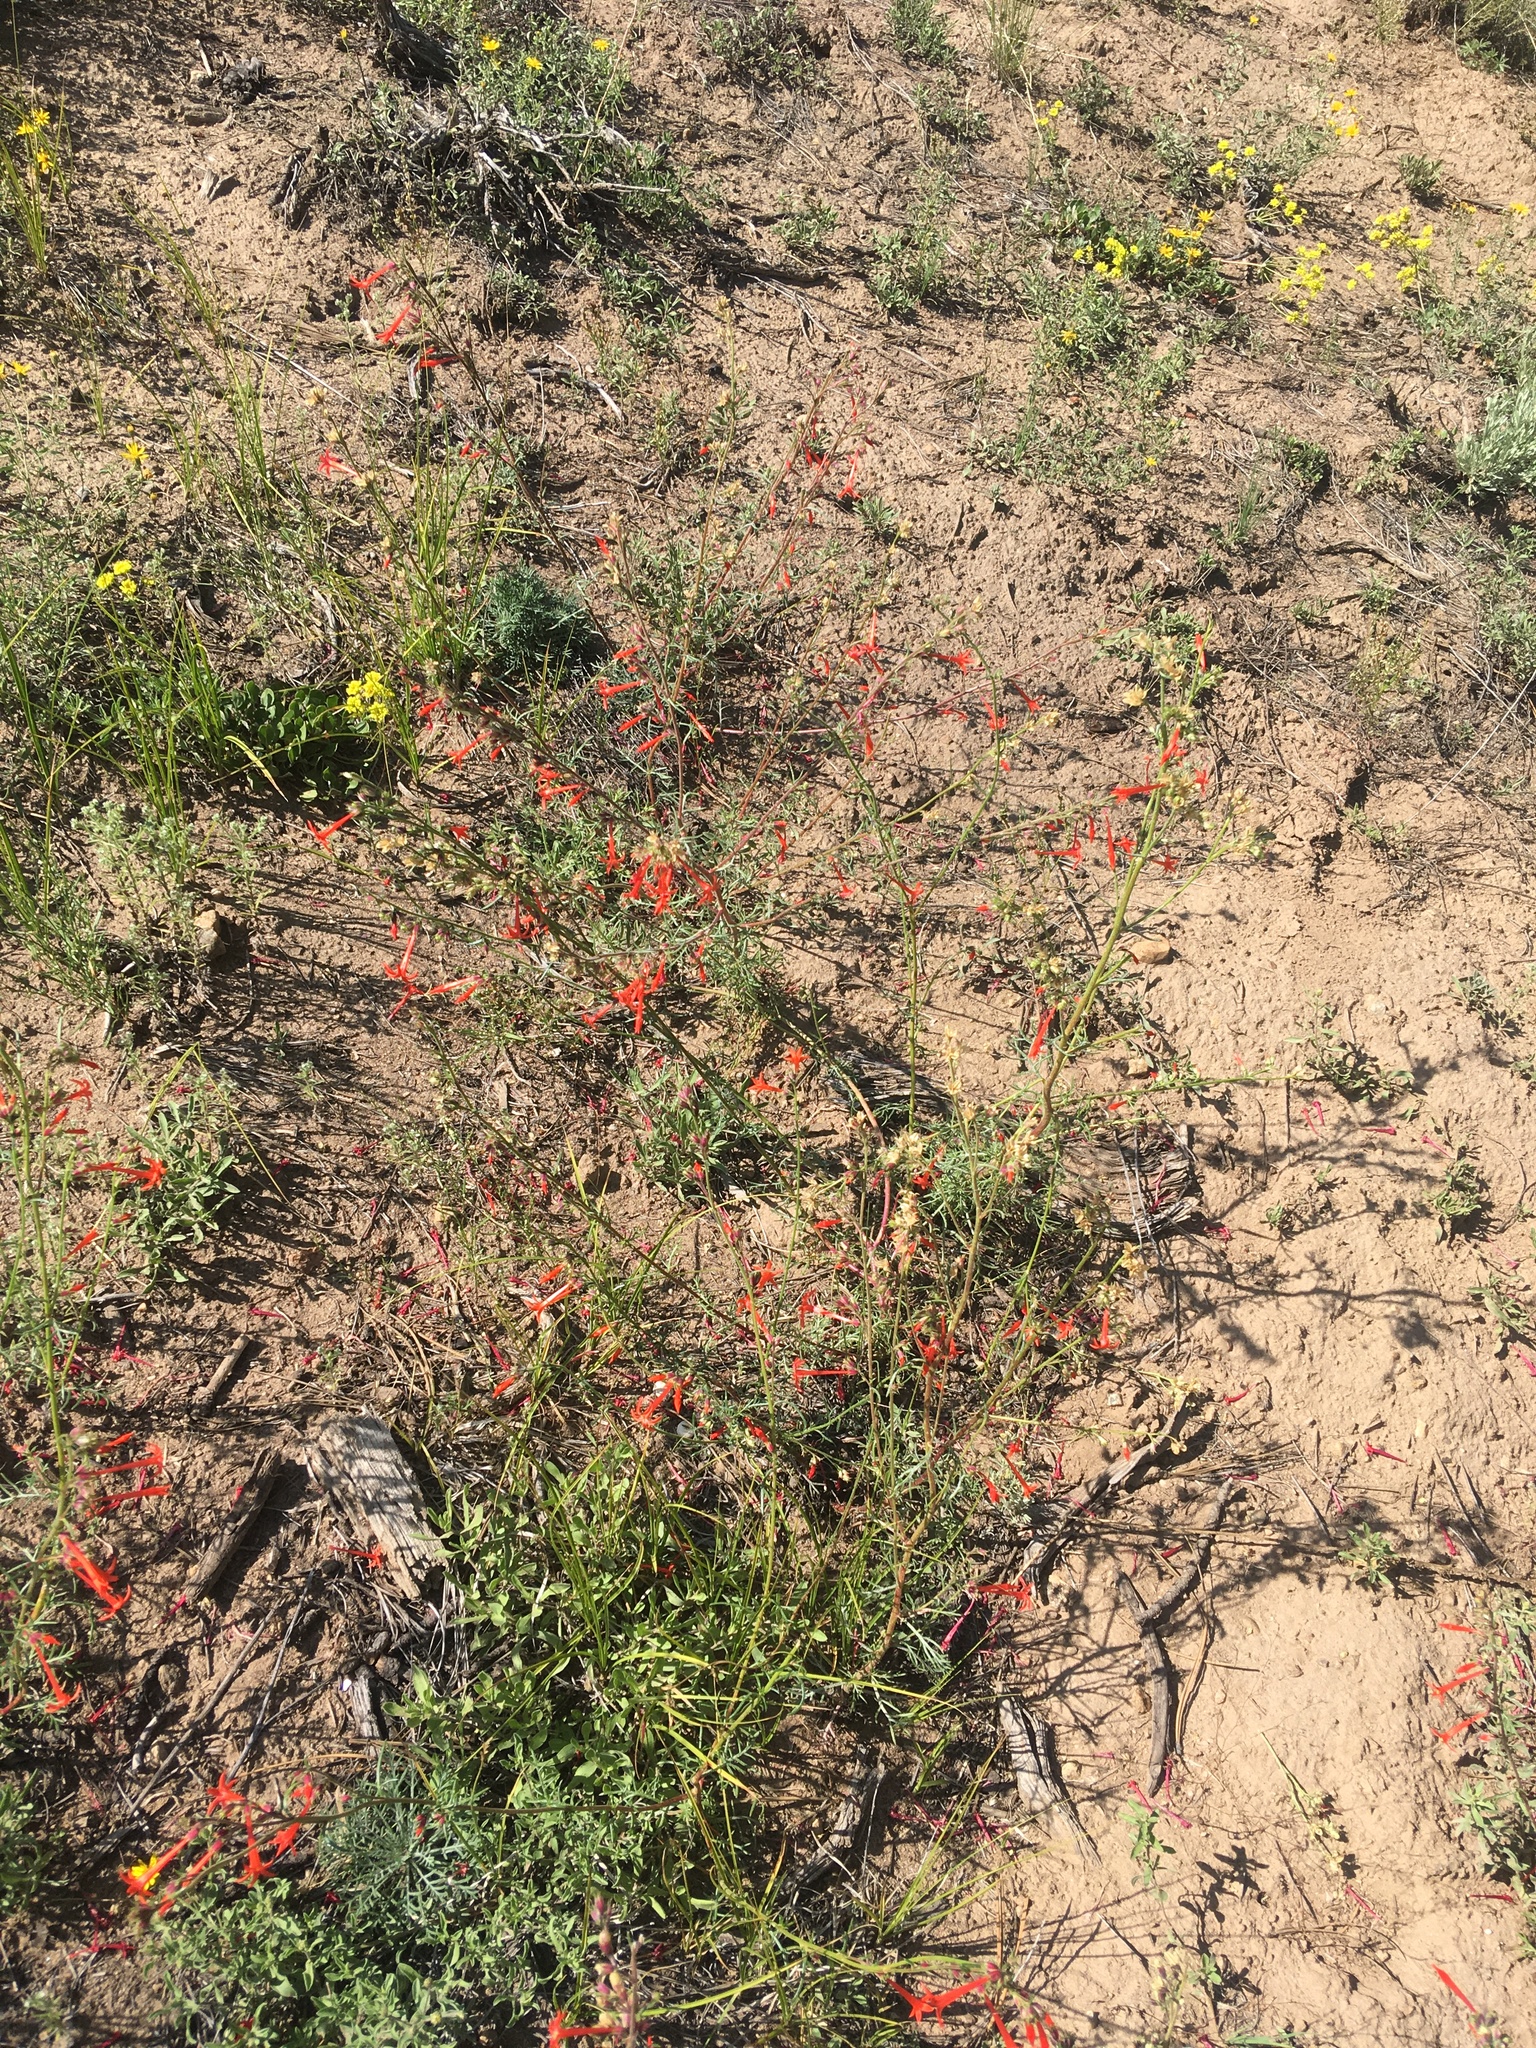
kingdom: Plantae
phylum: Tracheophyta
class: Magnoliopsida
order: Ericales
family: Polemoniaceae
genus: Ipomopsis
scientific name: Ipomopsis aggregata
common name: Scarlet gilia
